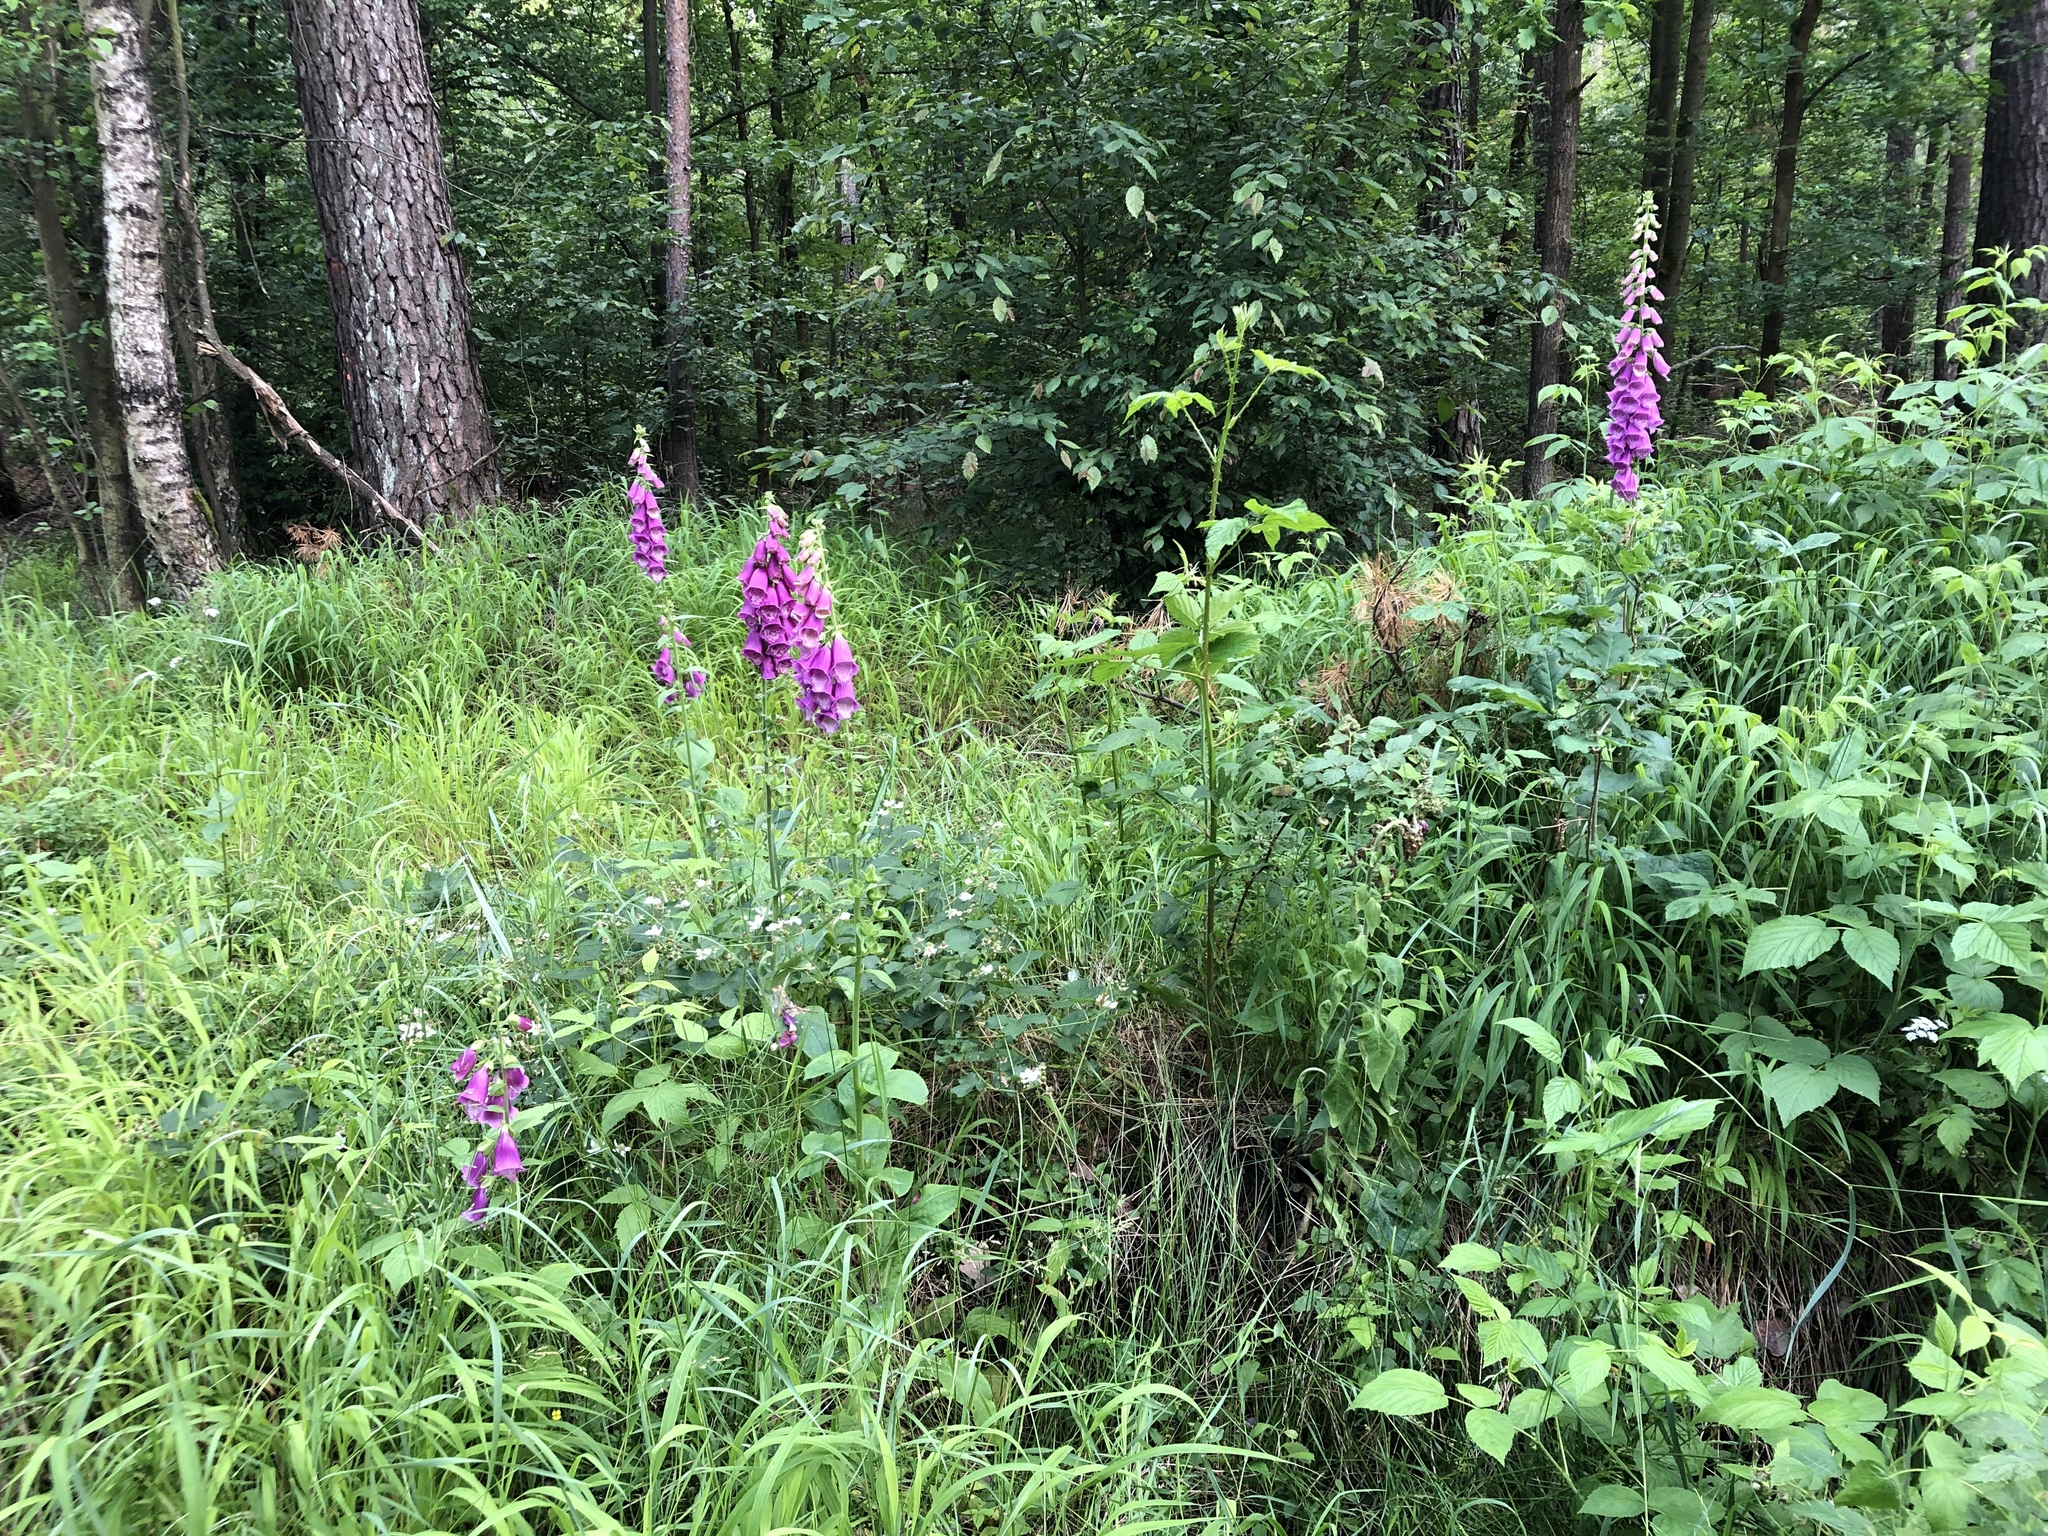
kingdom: Plantae
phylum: Tracheophyta
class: Magnoliopsida
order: Lamiales
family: Plantaginaceae
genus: Digitalis
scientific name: Digitalis purpurea
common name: Foxglove
